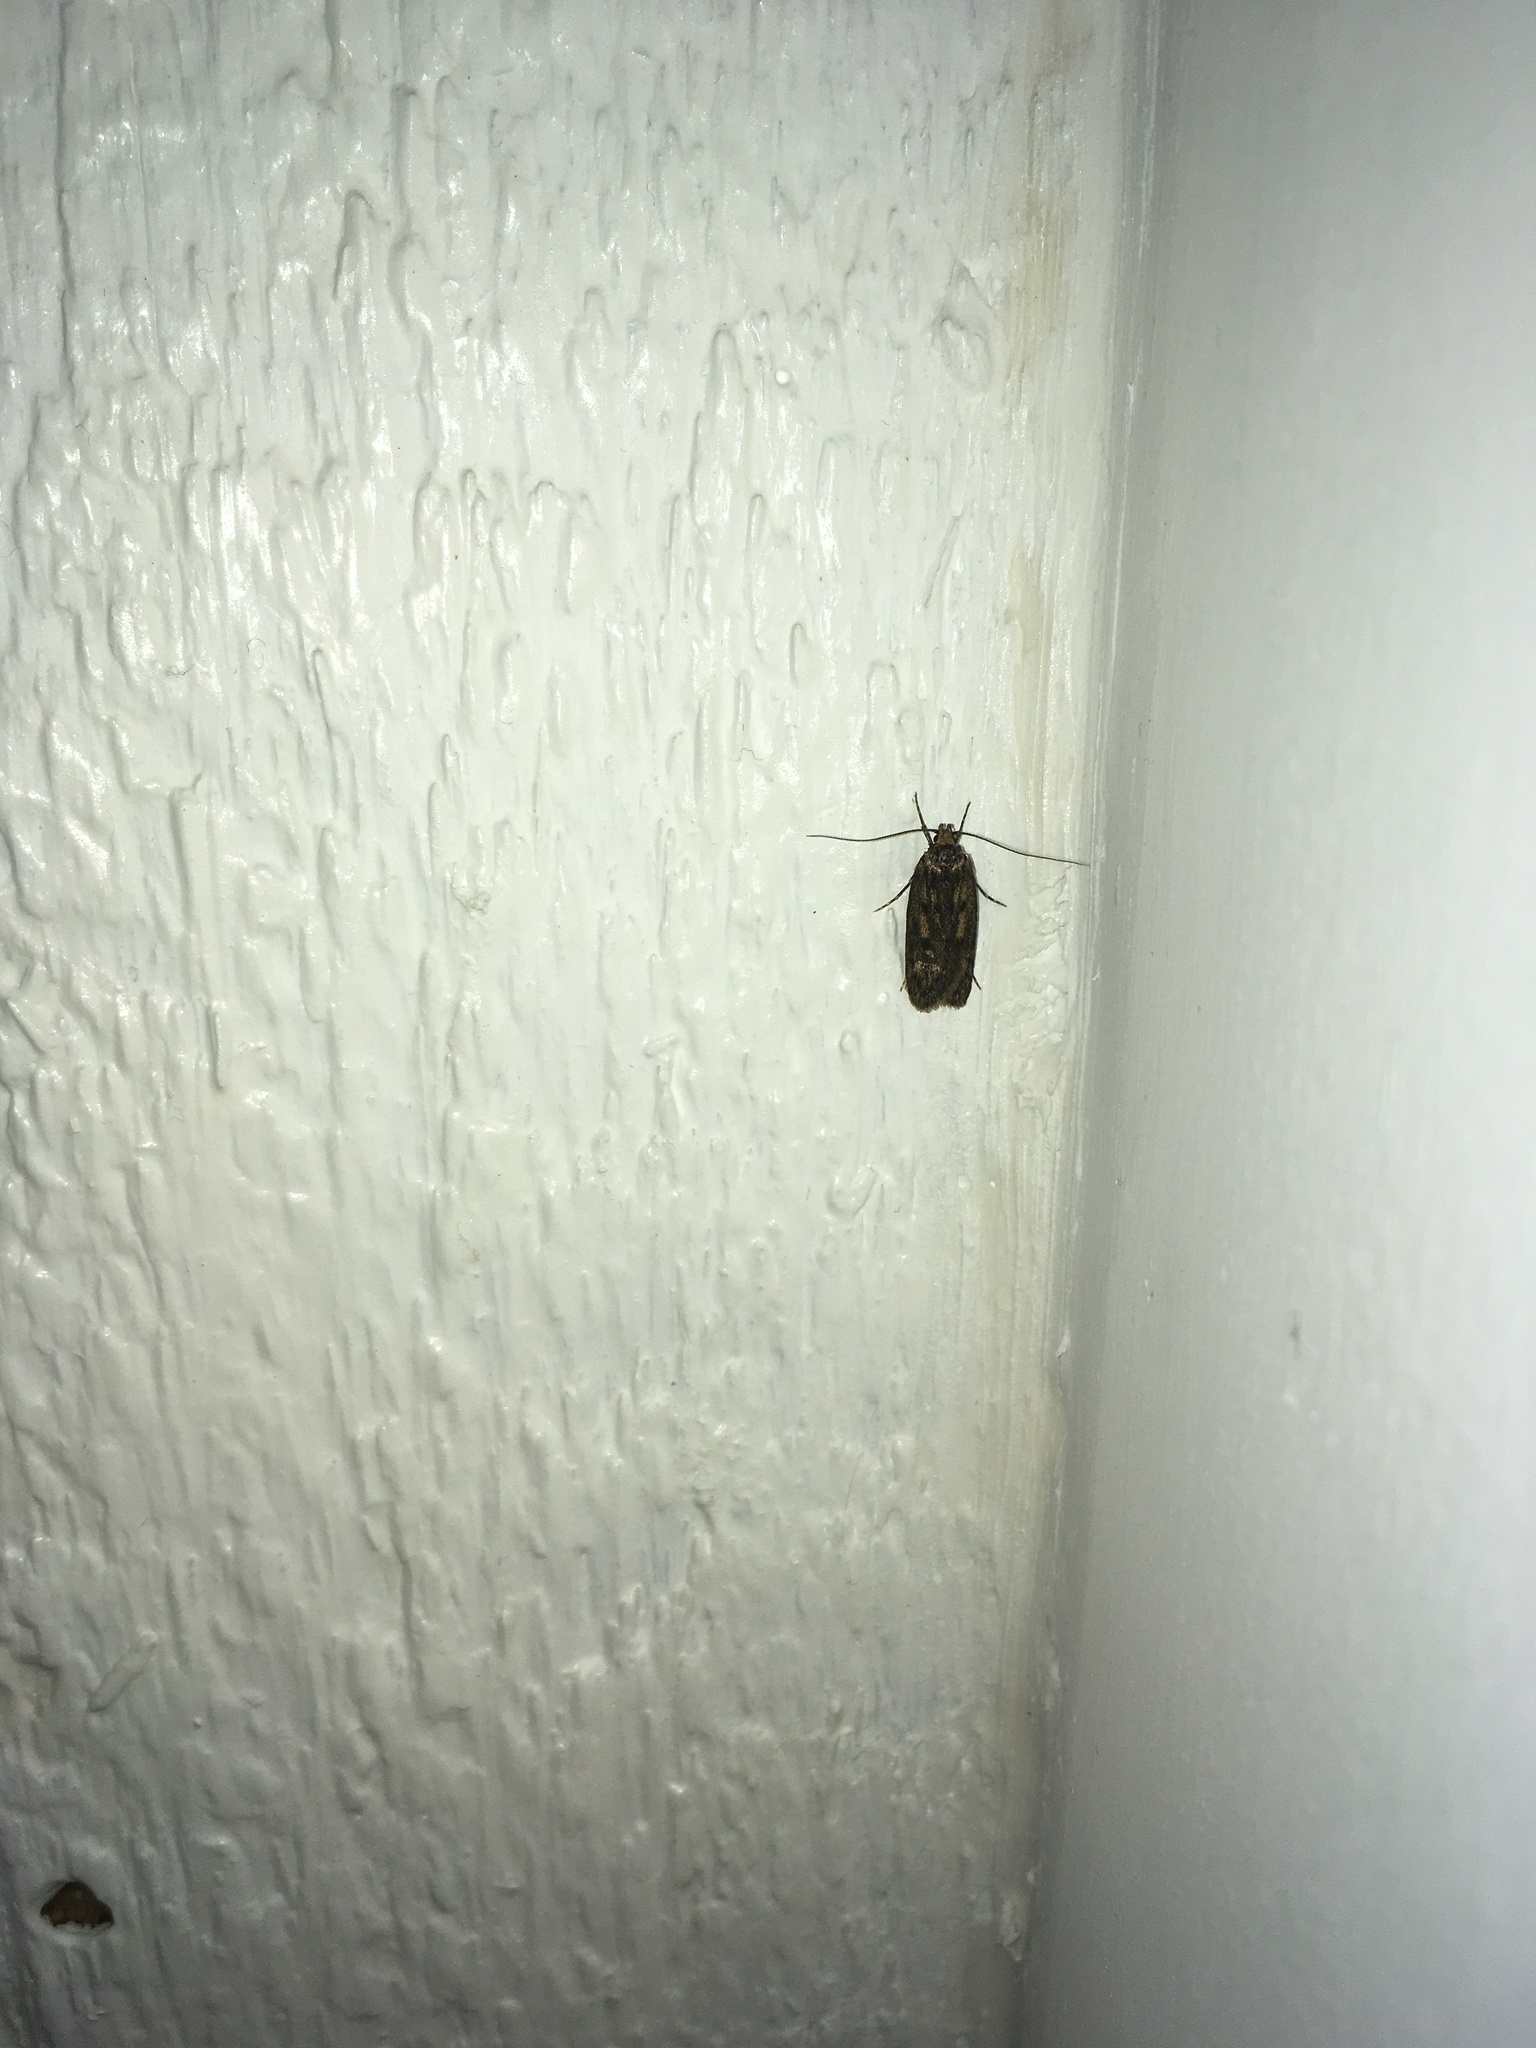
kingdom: Animalia
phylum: Arthropoda
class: Insecta
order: Lepidoptera
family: Oecophoridae
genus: Hofmannophila
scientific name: Hofmannophila pseudospretella
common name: Brown house moth
